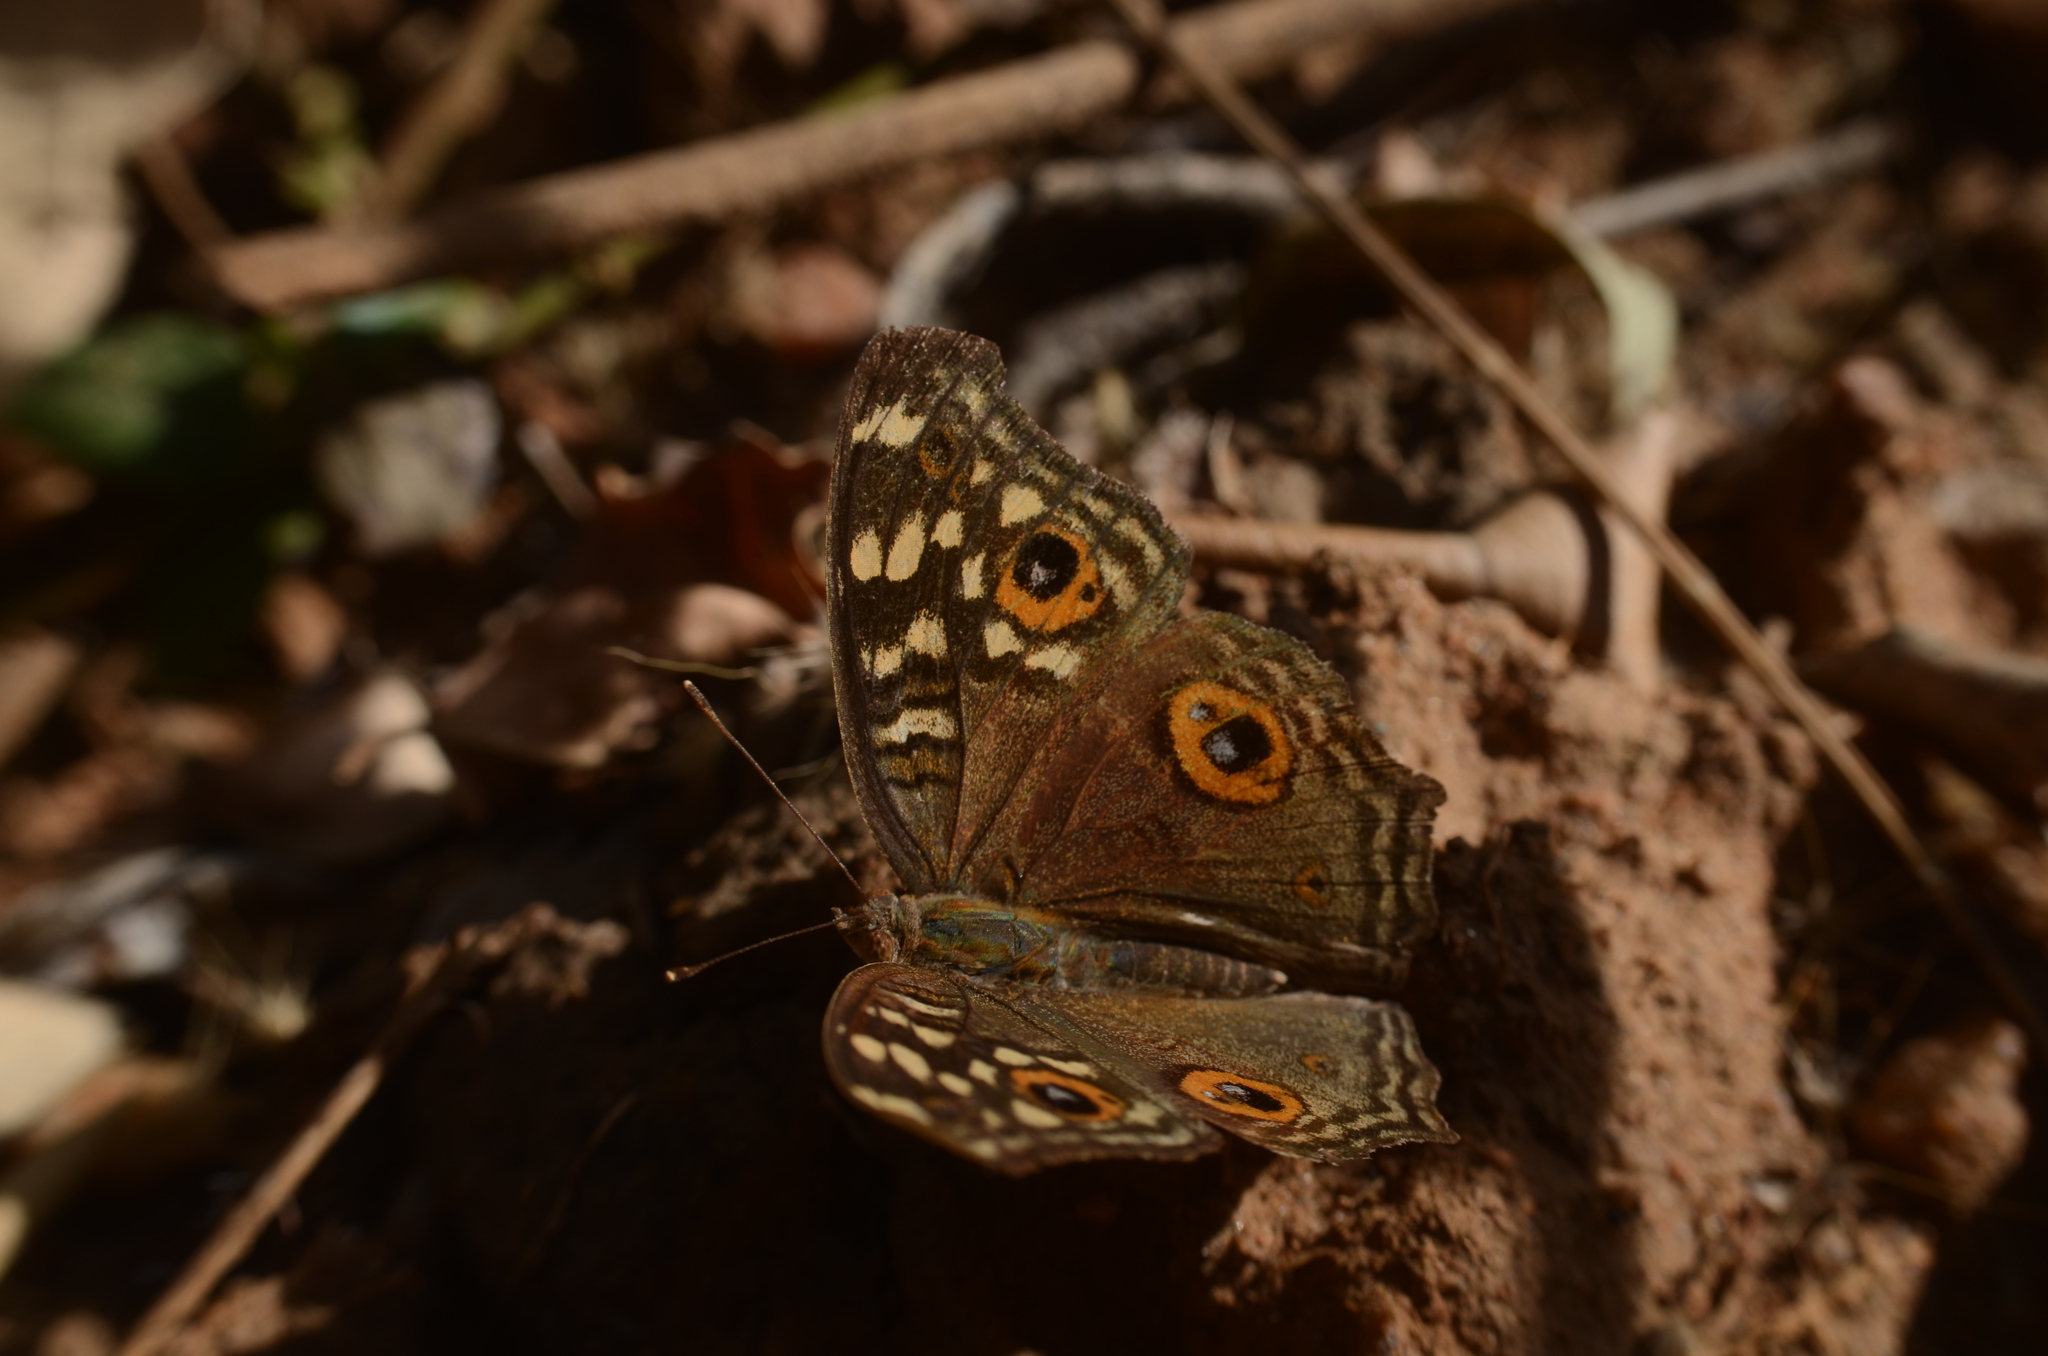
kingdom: Animalia
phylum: Arthropoda
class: Insecta
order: Lepidoptera
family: Nymphalidae
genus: Junonia
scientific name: Junonia lemonias
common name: Lemon pansy
